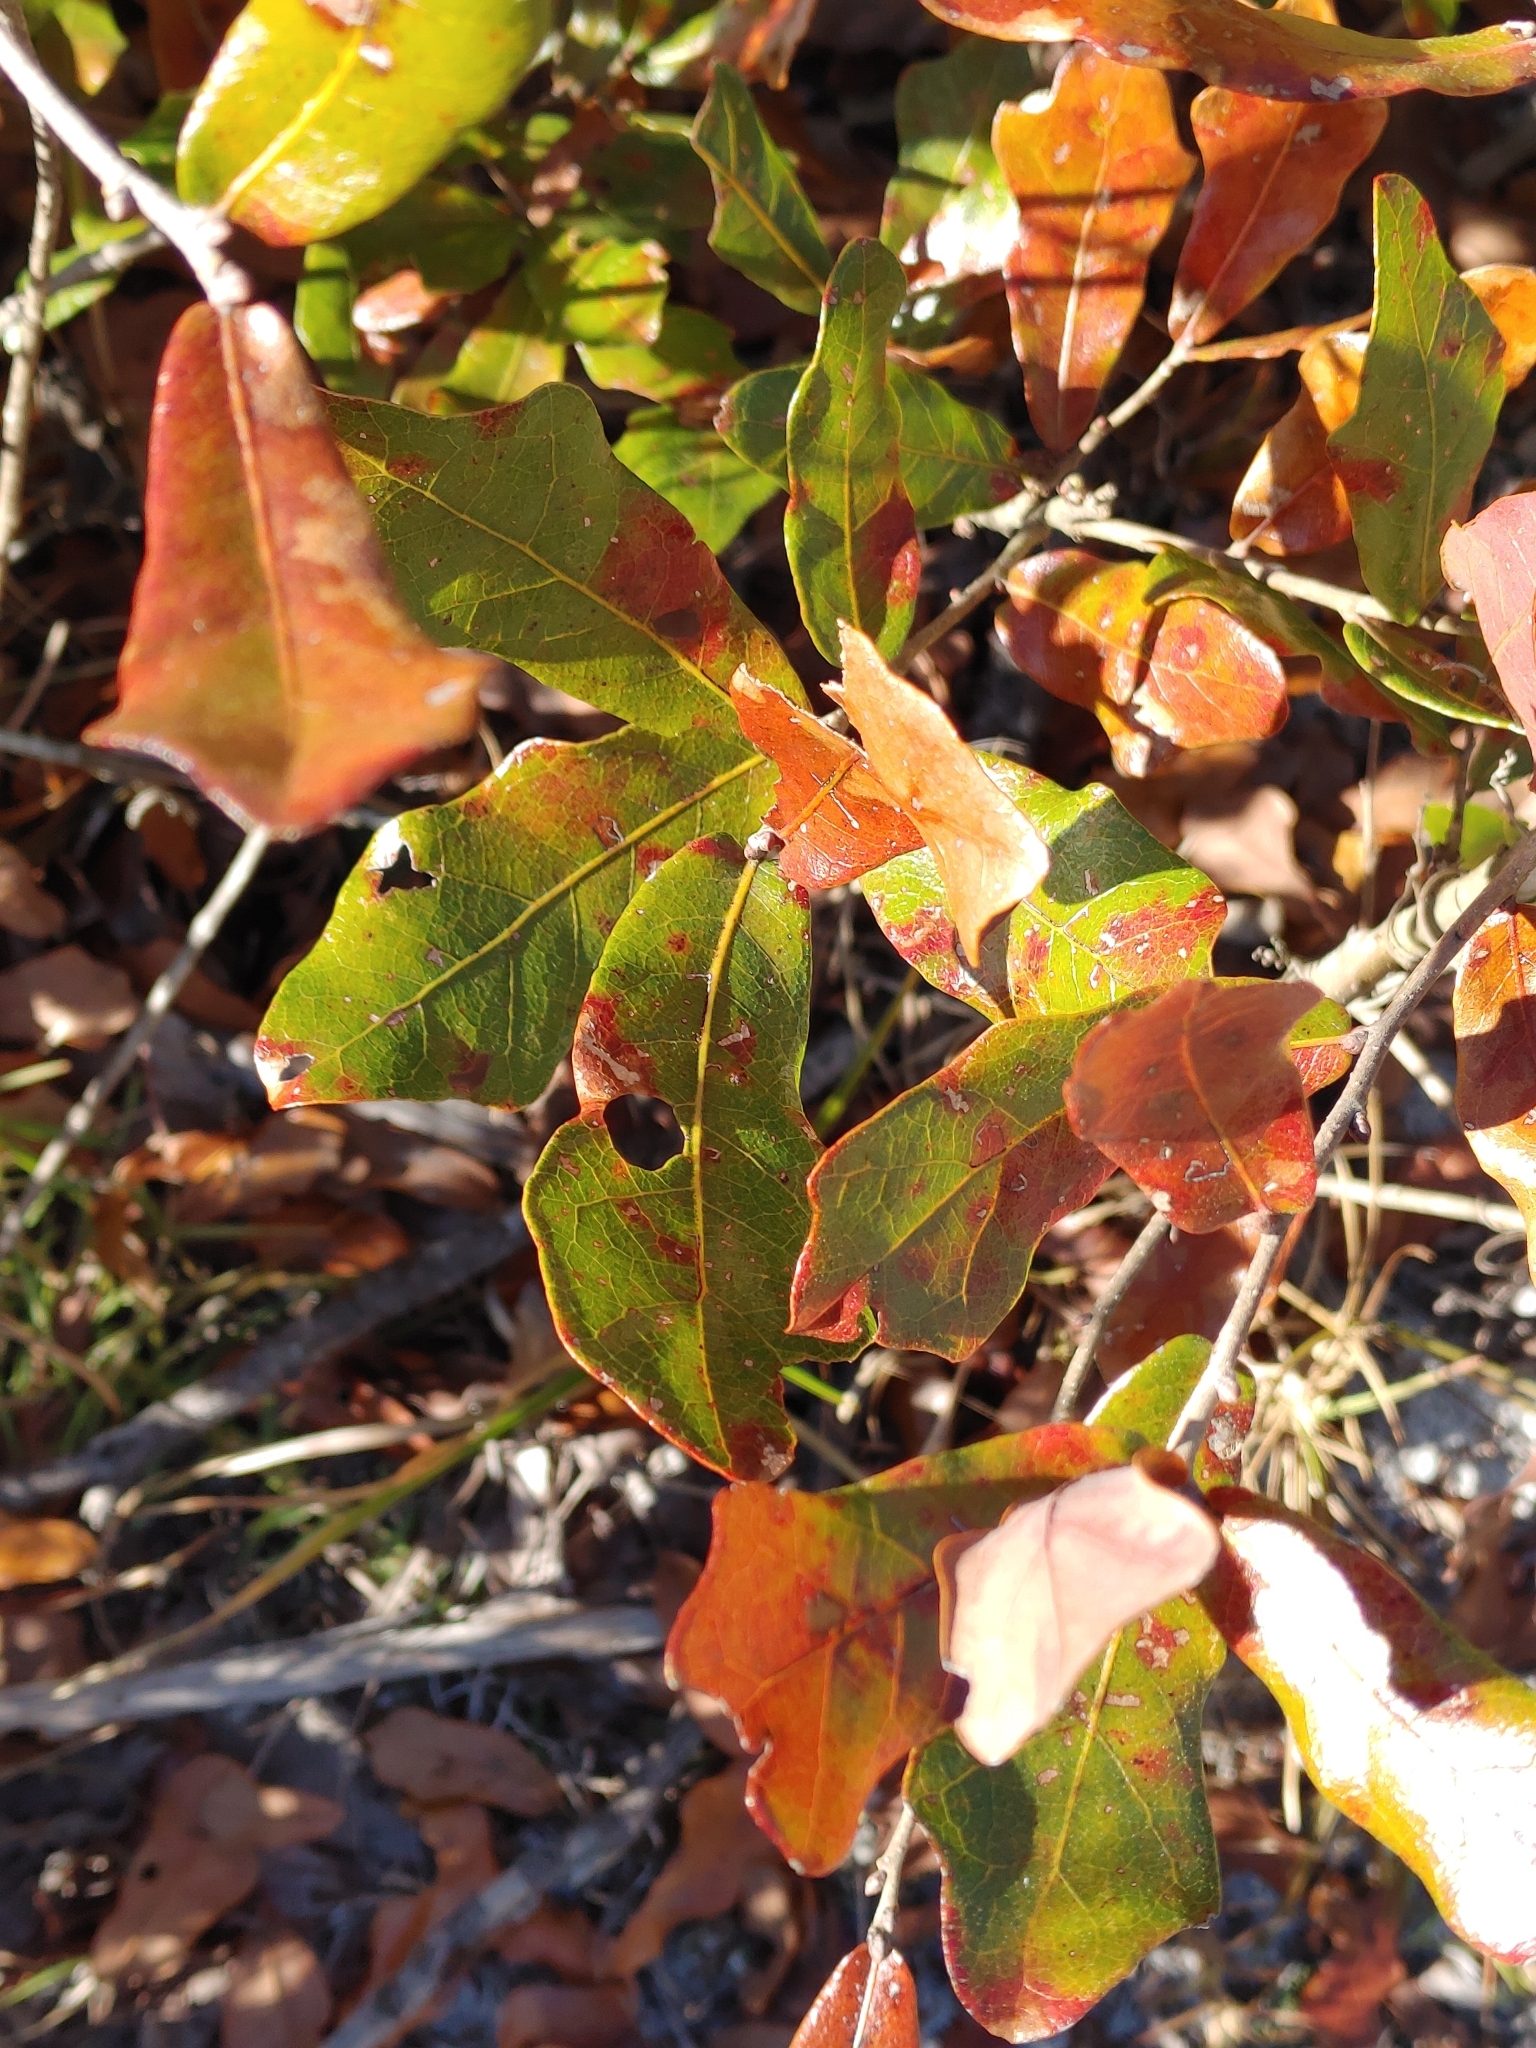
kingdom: Plantae
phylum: Tracheophyta
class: Magnoliopsida
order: Fagales
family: Fagaceae
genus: Quercus
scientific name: Quercus chapmanii
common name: Chapman oak
